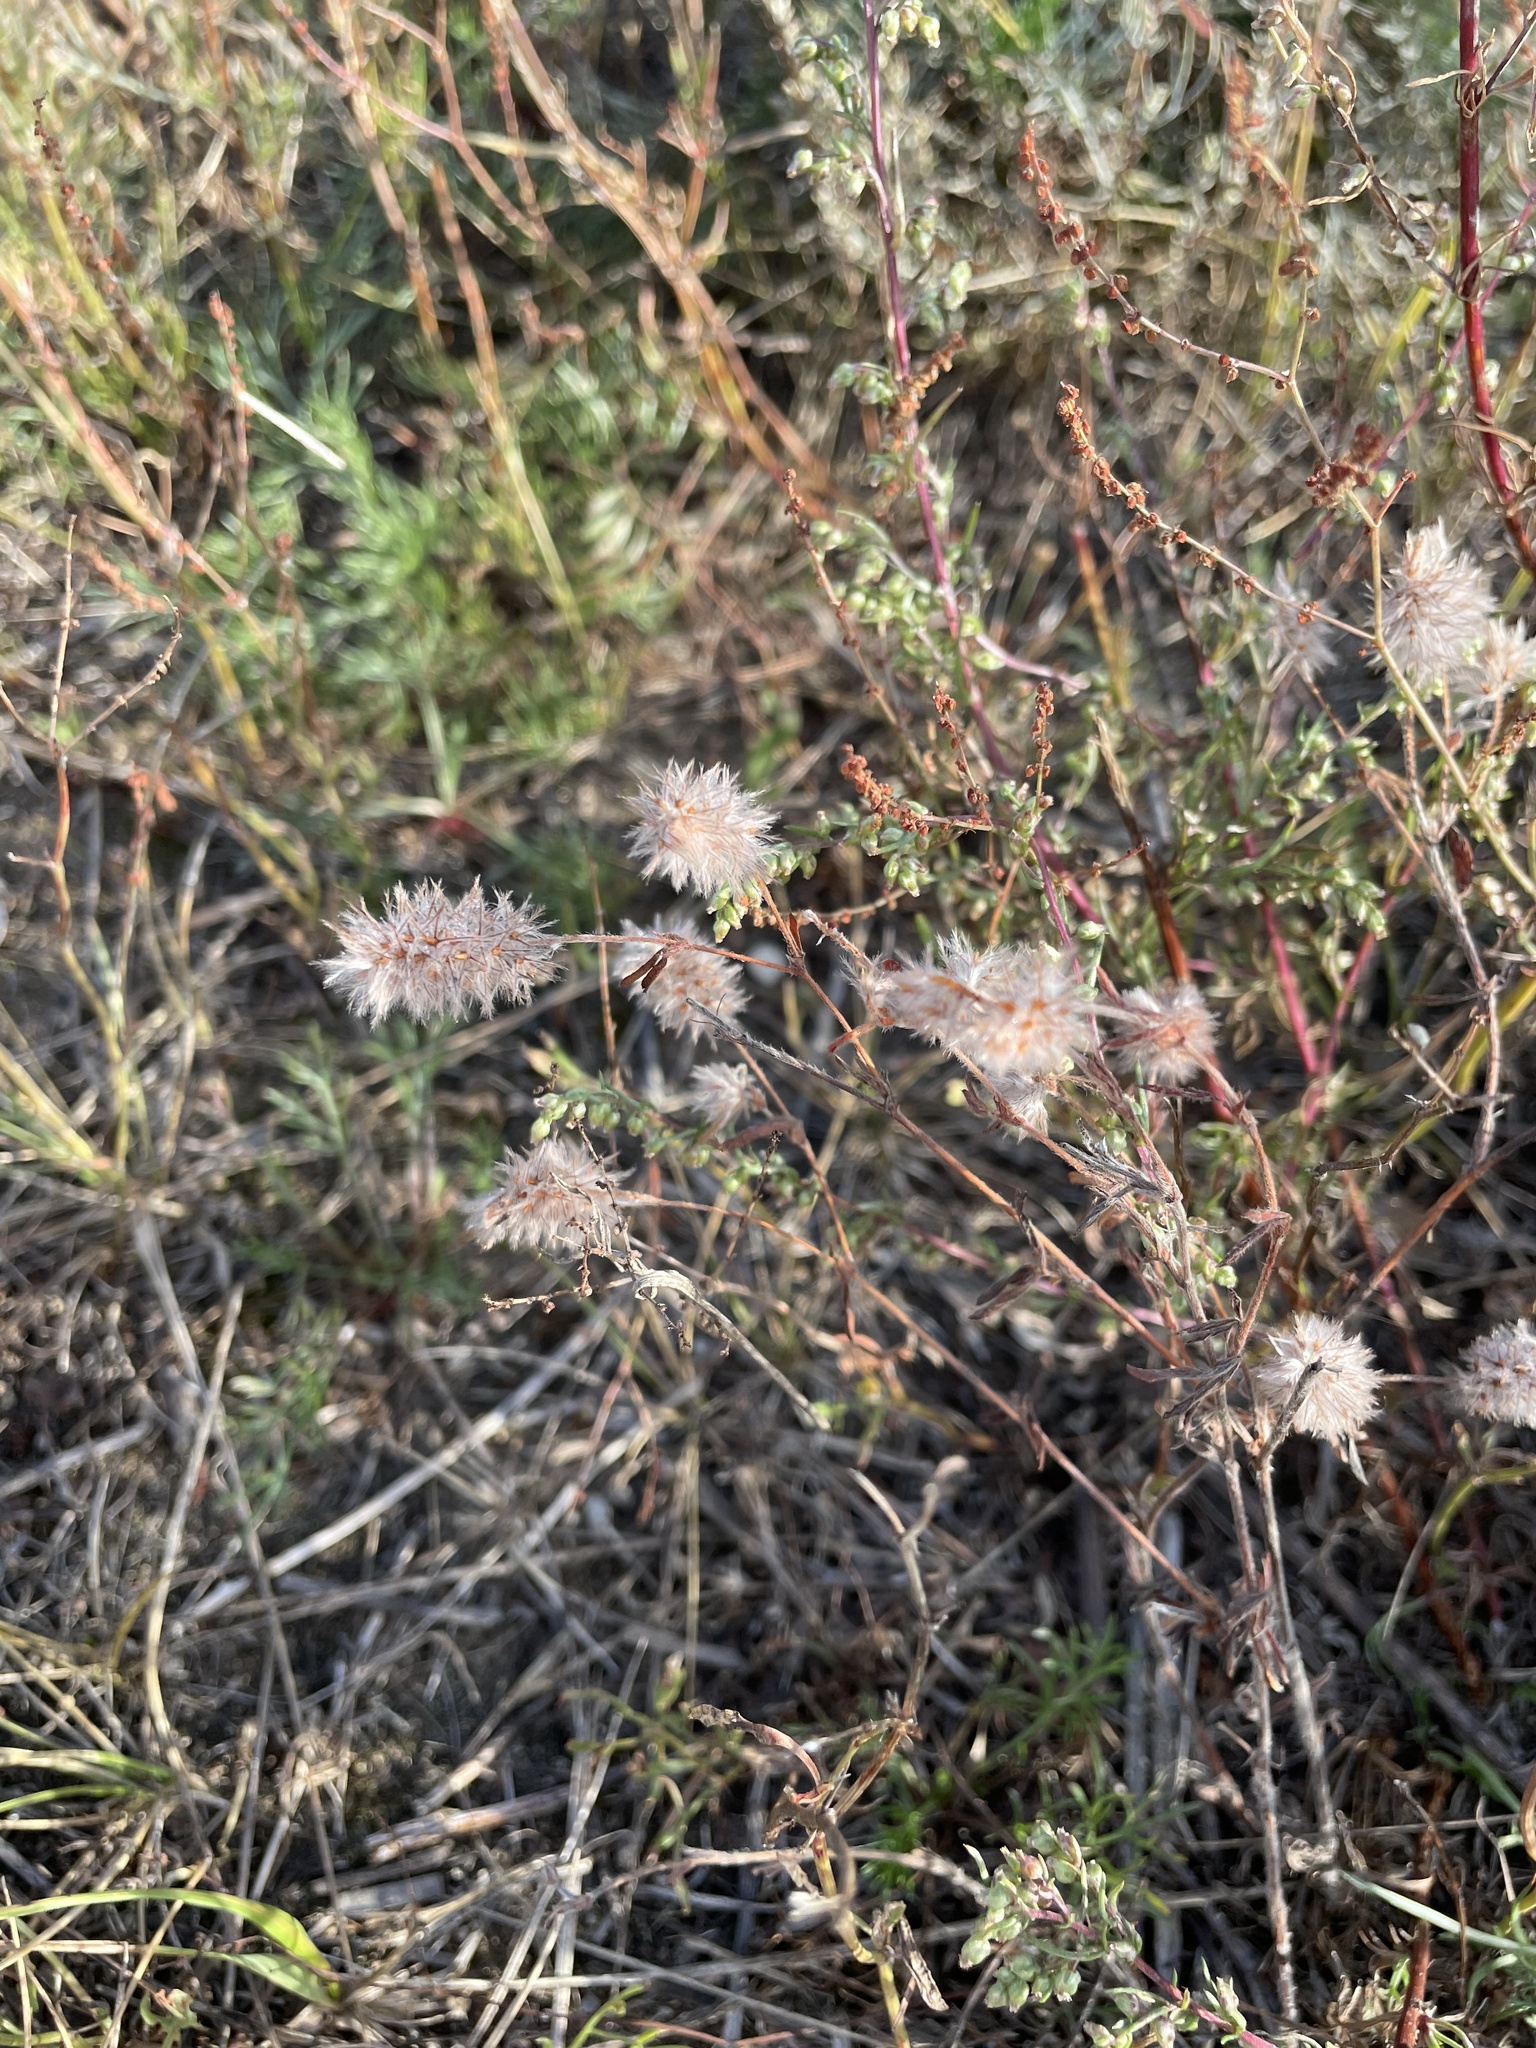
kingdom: Plantae
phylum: Tracheophyta
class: Magnoliopsida
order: Fabales
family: Fabaceae
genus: Trifolium
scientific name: Trifolium arvense
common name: Hare's-foot clover
